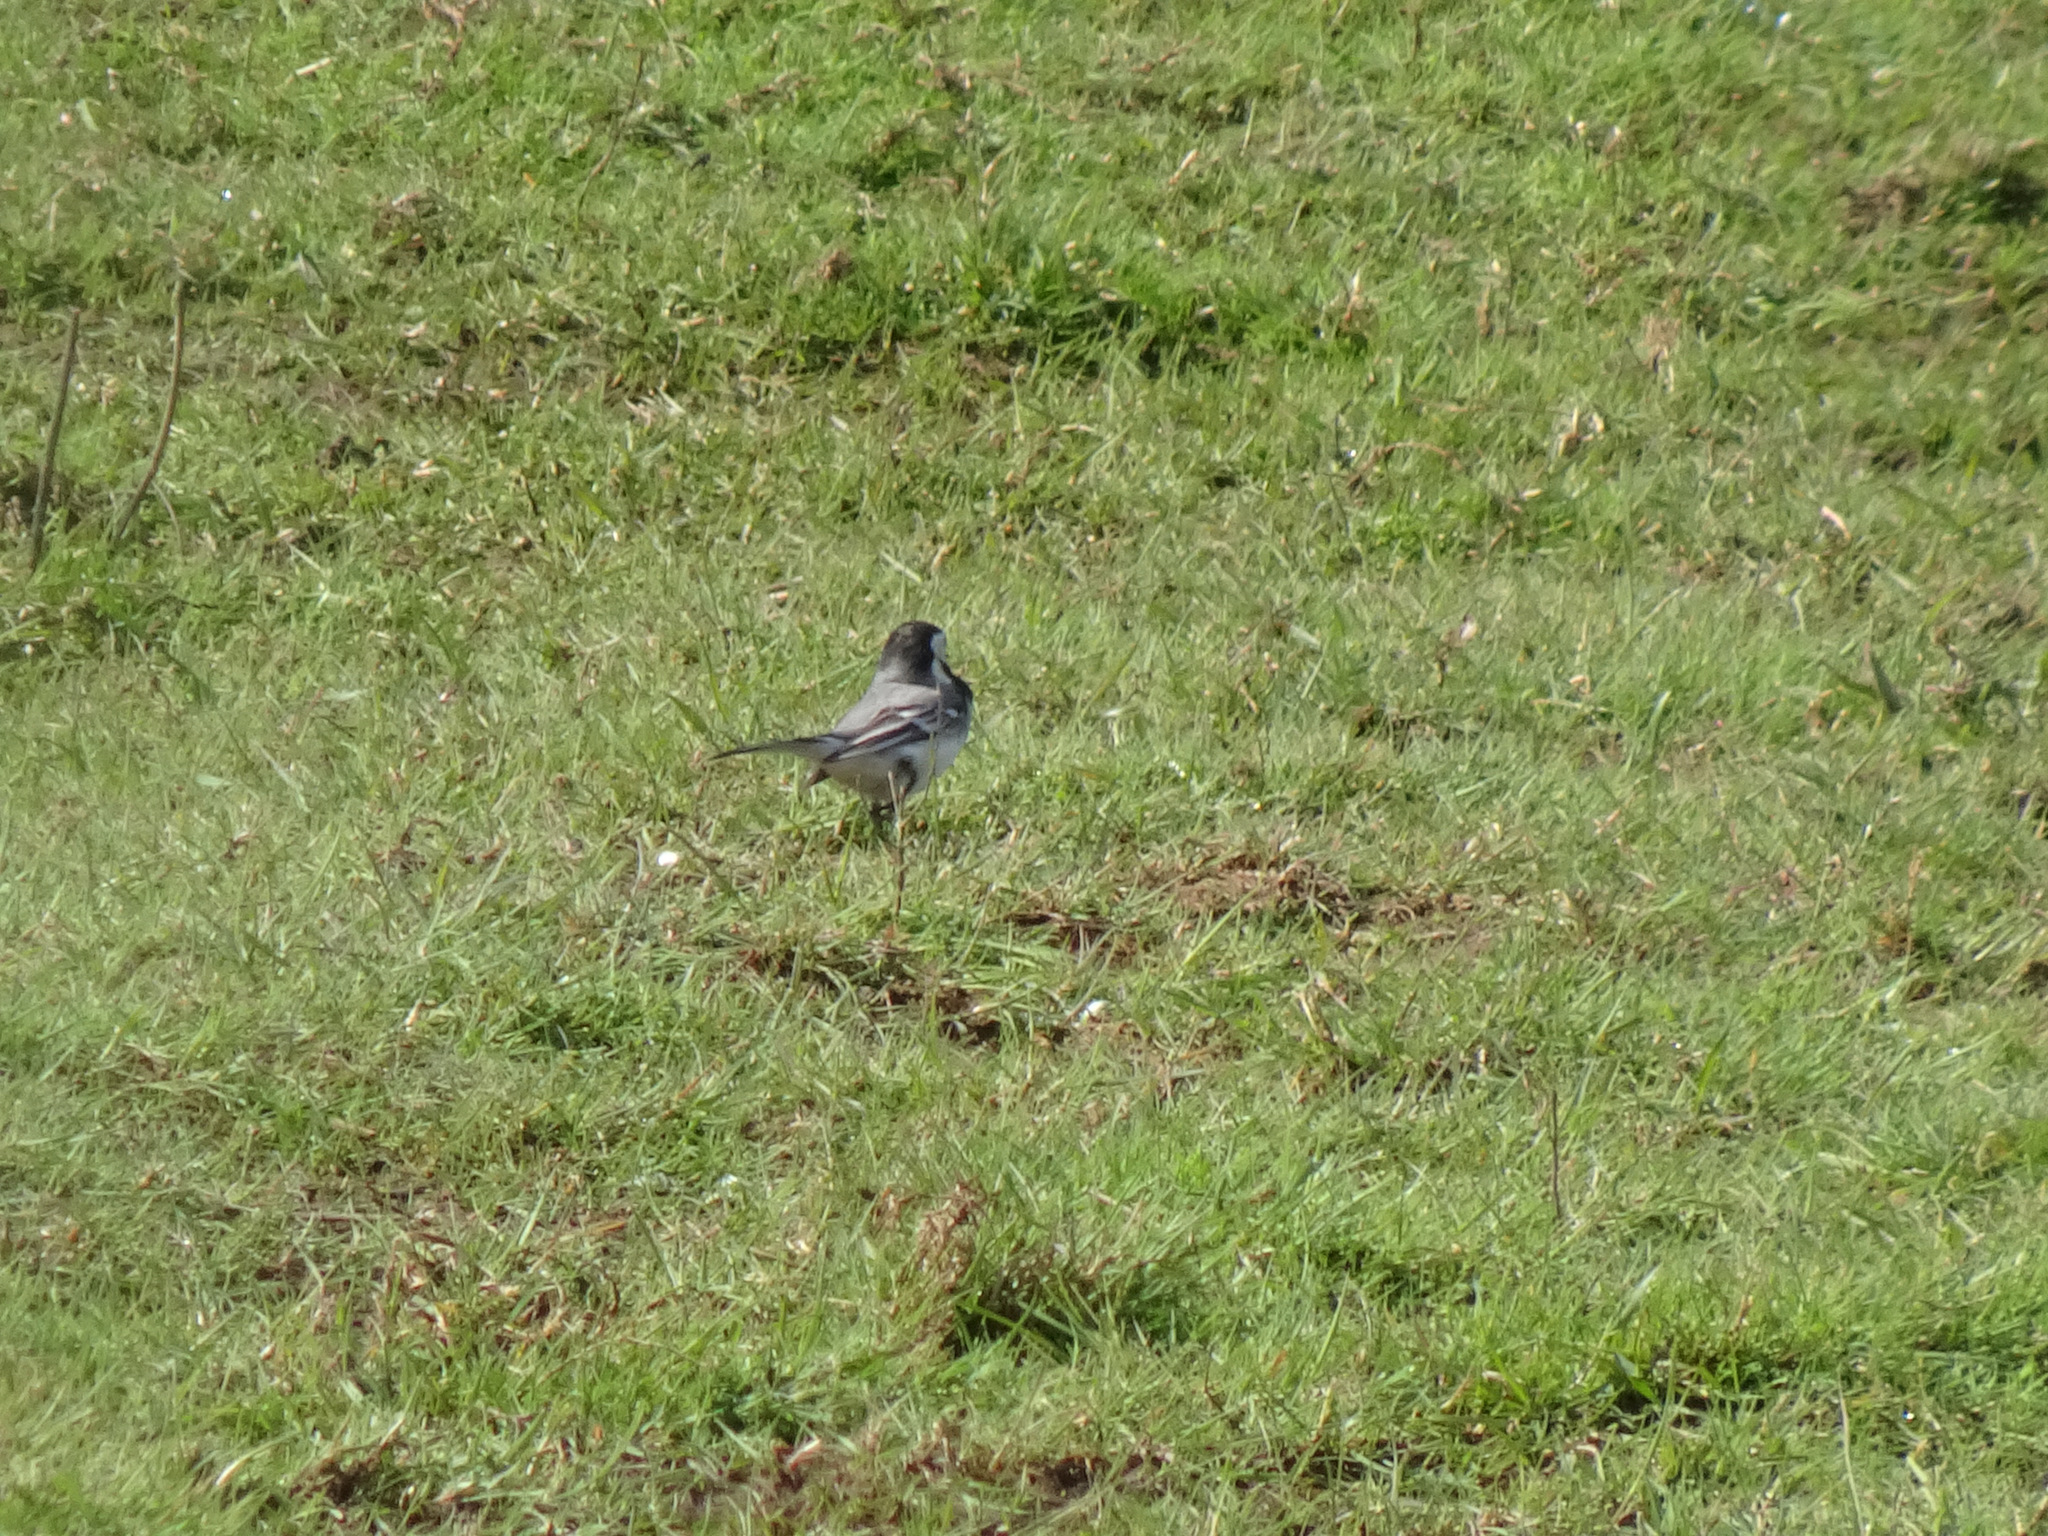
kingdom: Animalia
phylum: Chordata
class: Aves
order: Passeriformes
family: Motacillidae
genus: Motacilla
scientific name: Motacilla alba
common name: White wagtail
